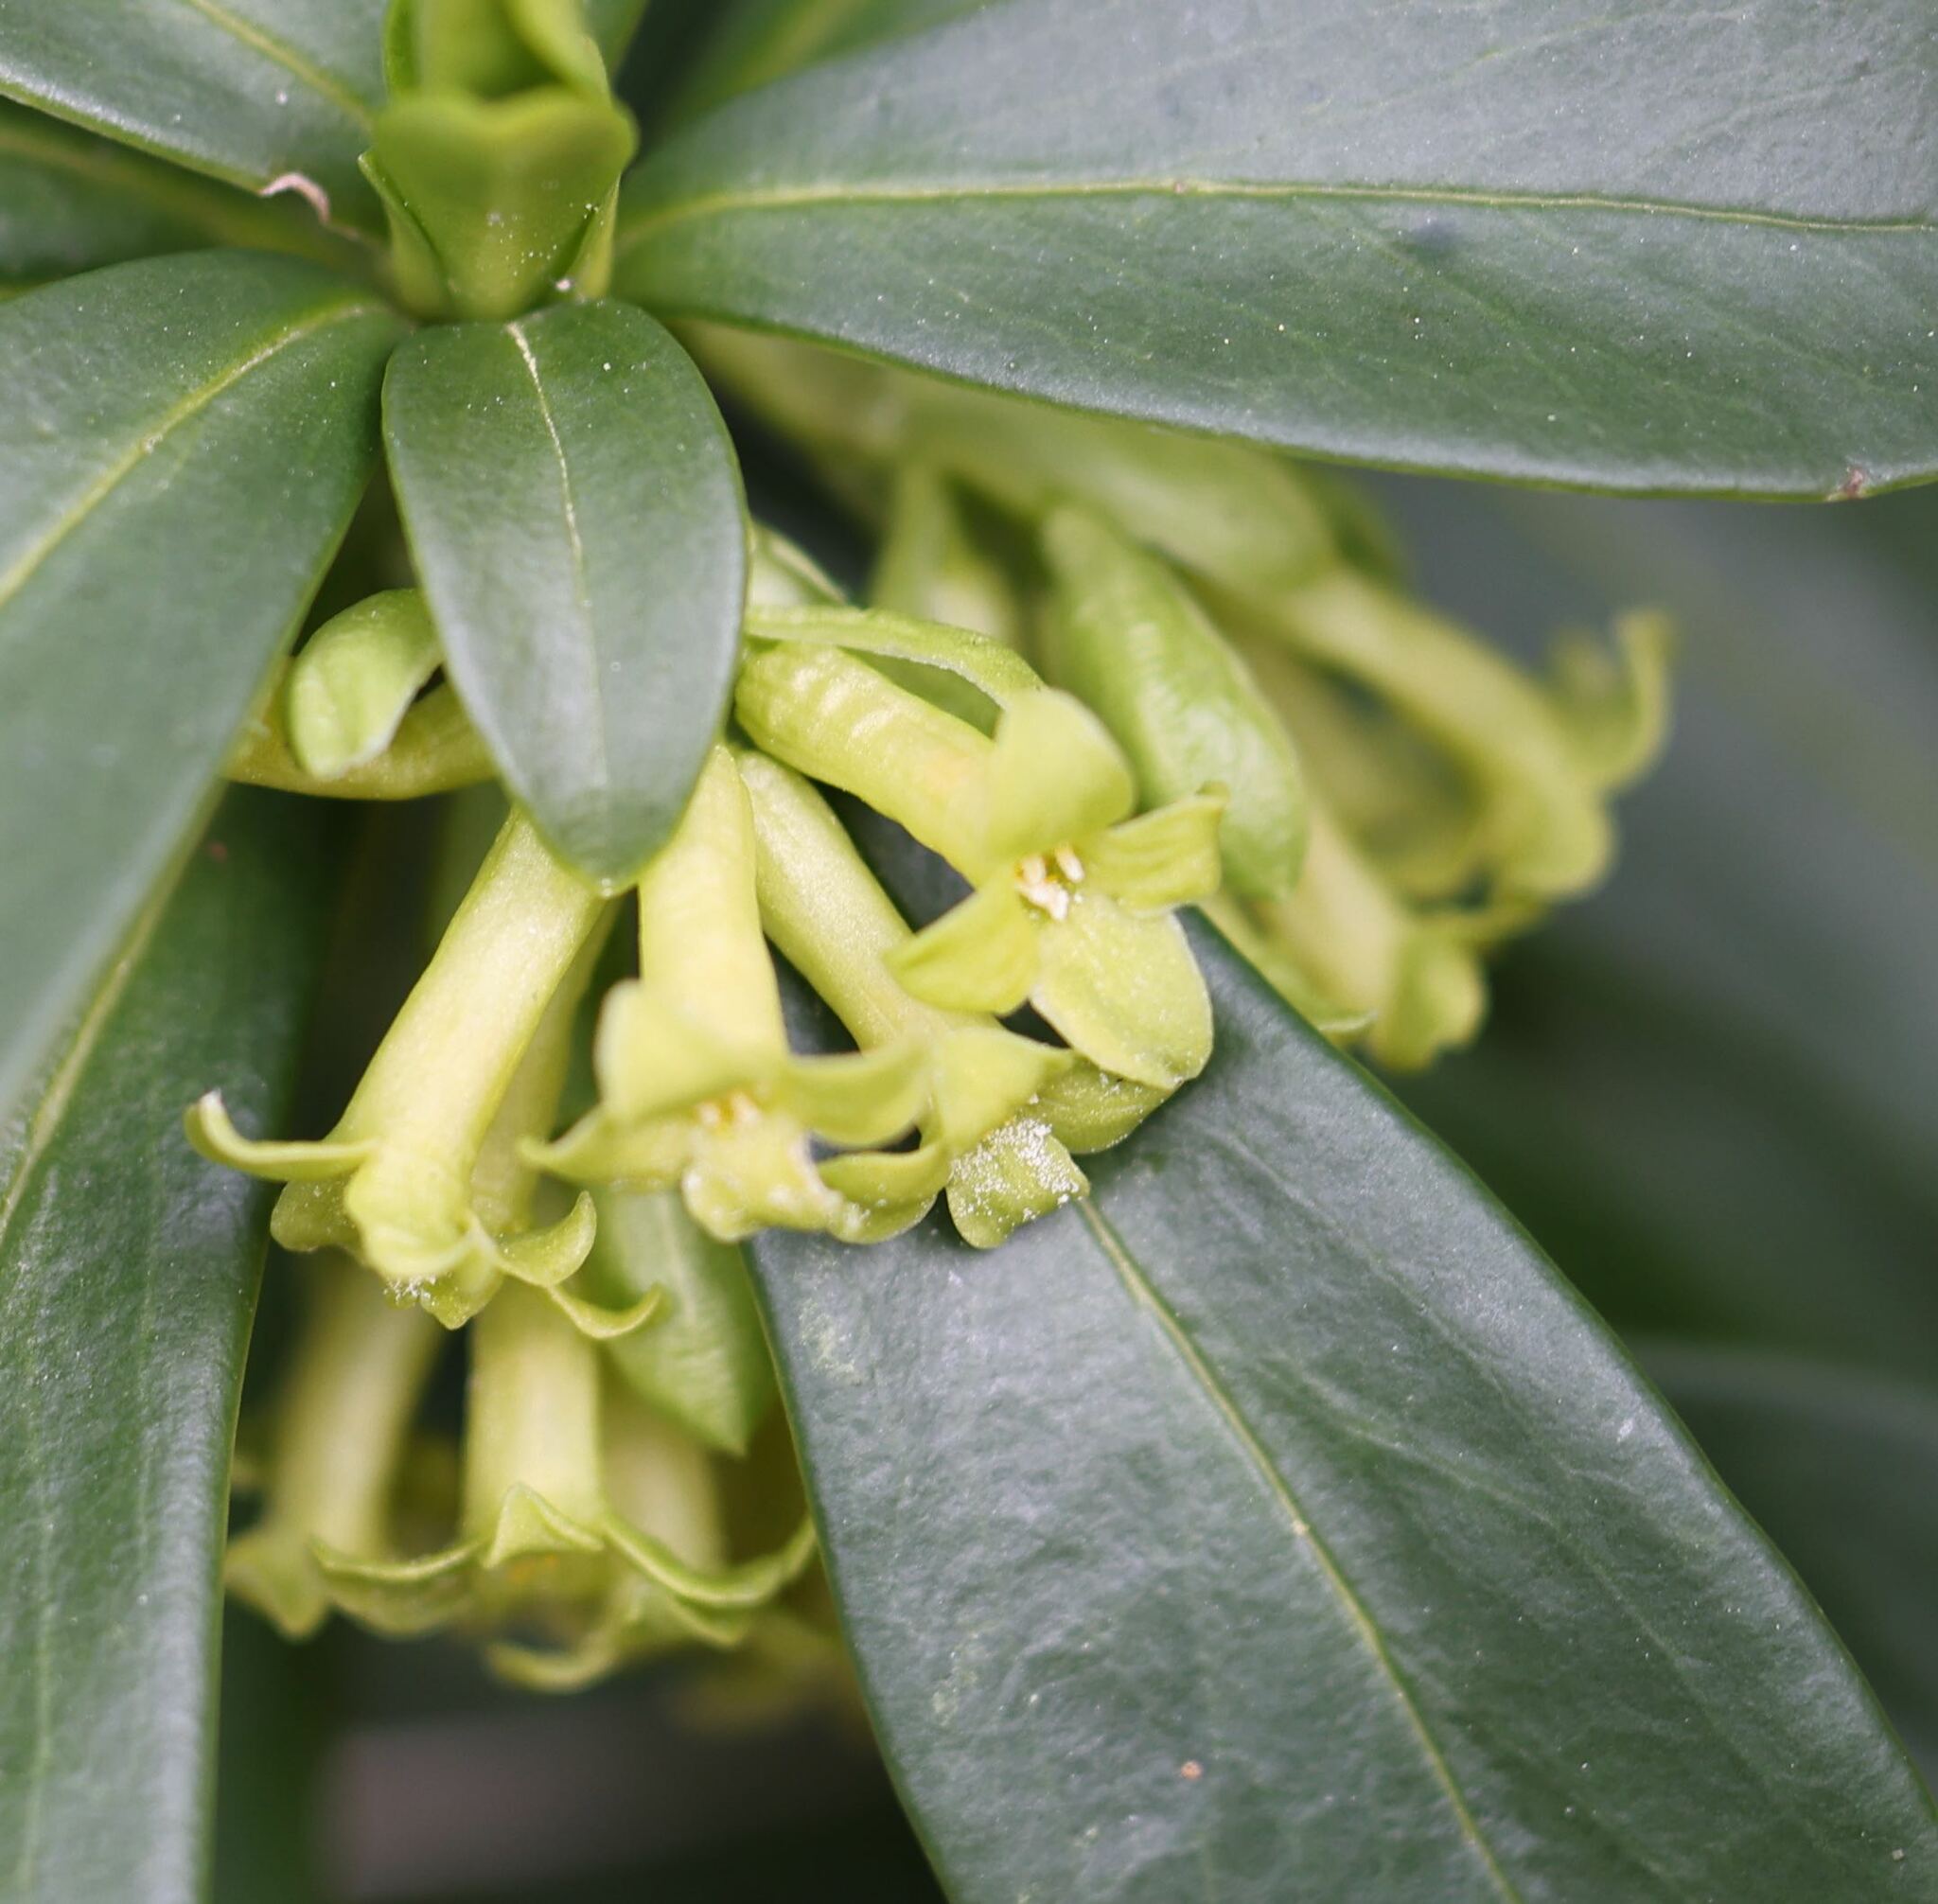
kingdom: Plantae
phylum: Tracheophyta
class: Magnoliopsida
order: Malvales
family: Thymelaeaceae
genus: Daphne
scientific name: Daphne laureola
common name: Spurge-laurel
